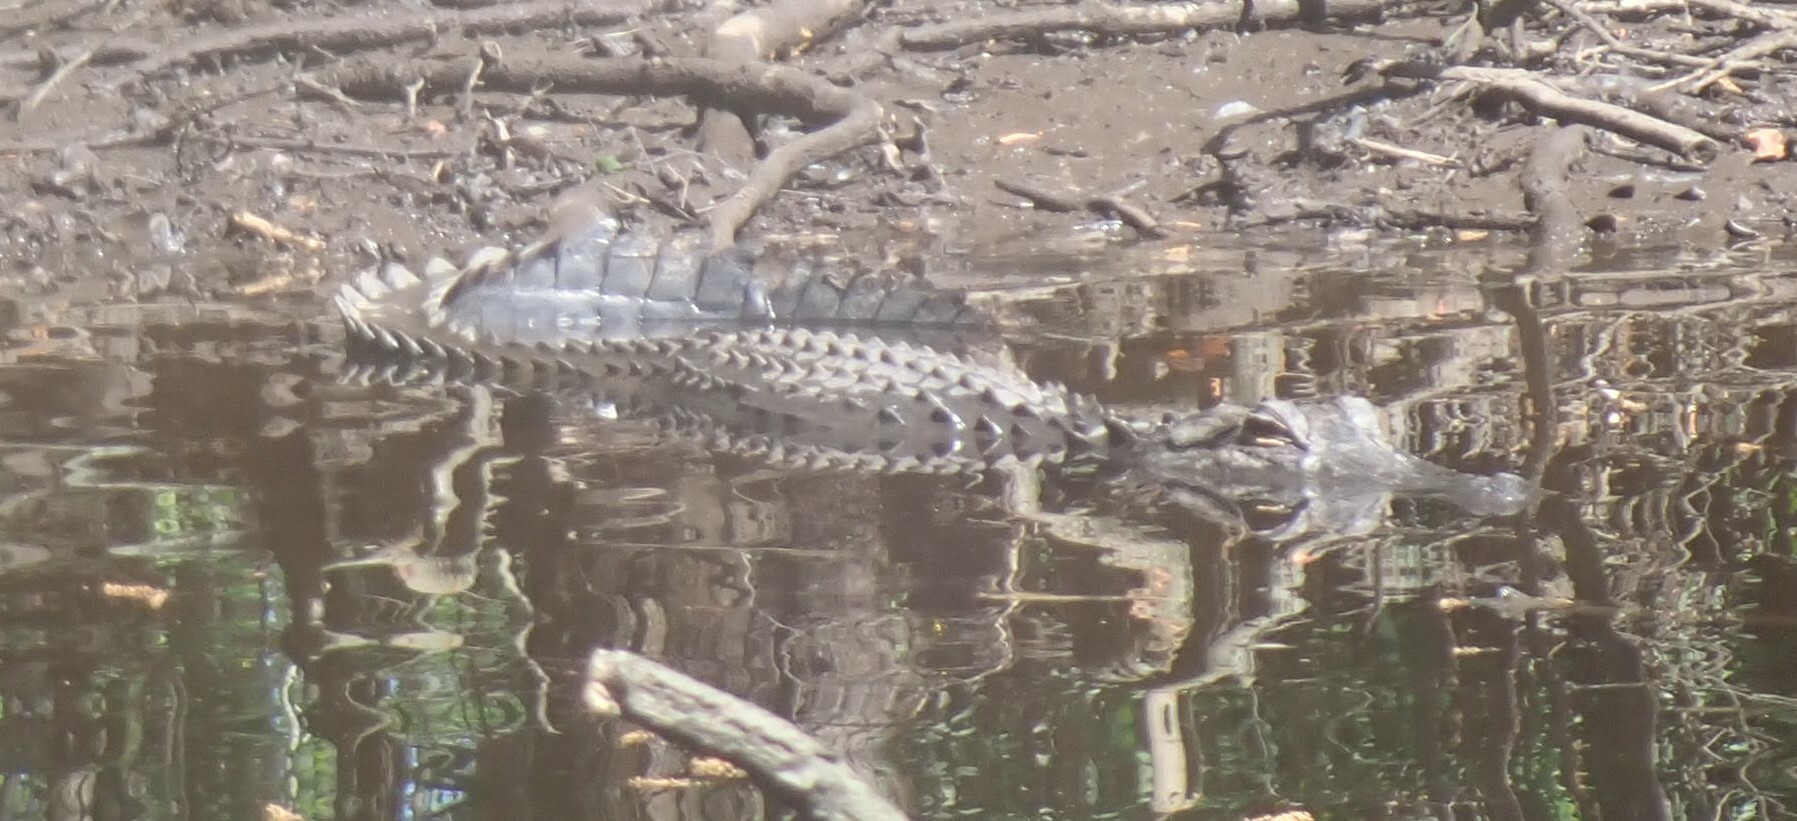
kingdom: Animalia
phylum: Chordata
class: Crocodylia
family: Alligatoridae
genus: Alligator
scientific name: Alligator mississippiensis
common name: American alligator
